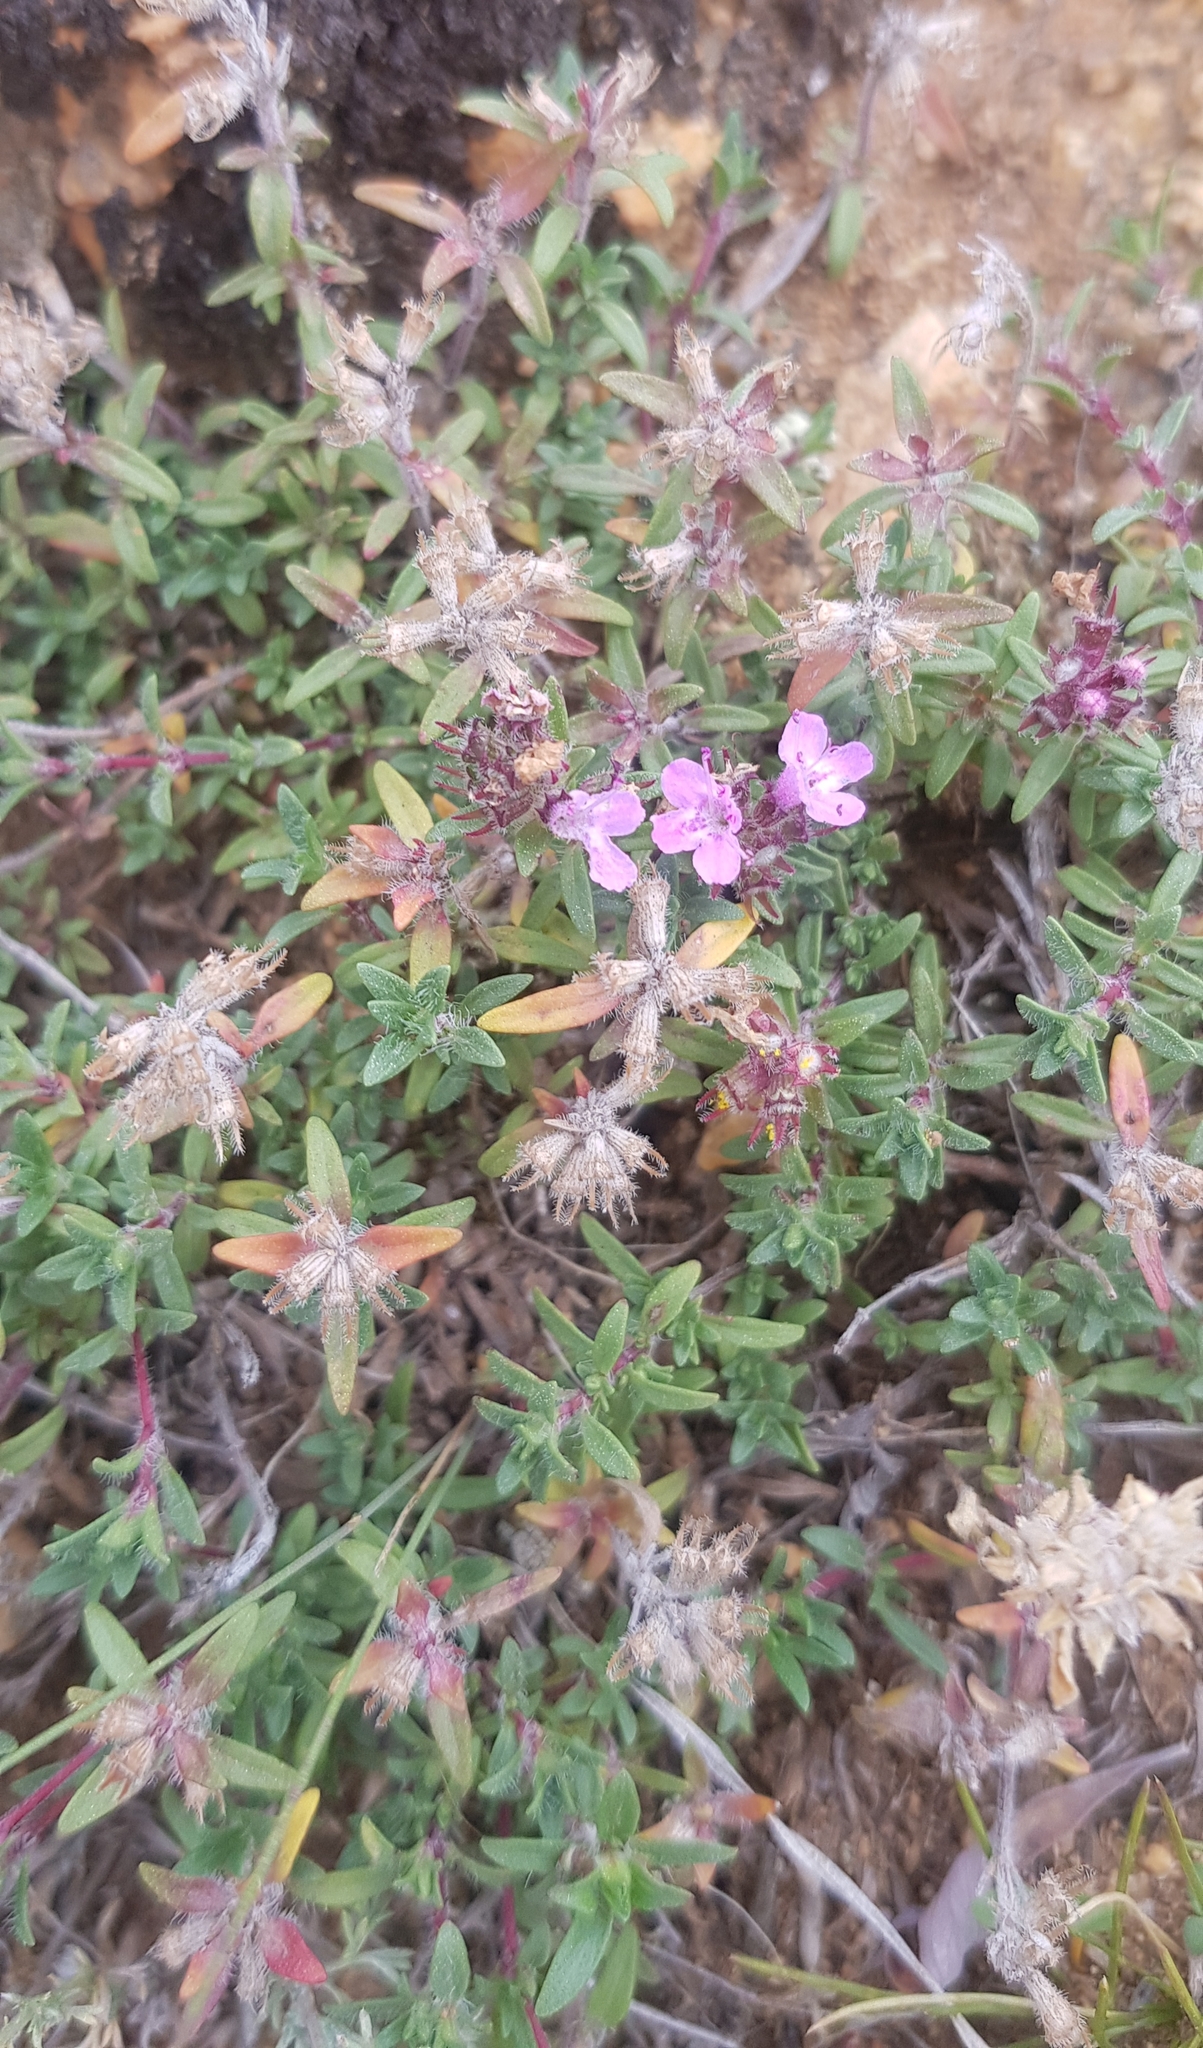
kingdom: Plantae
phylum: Tracheophyta
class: Magnoliopsida
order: Lamiales
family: Lamiaceae
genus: Thymus
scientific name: Thymus gobicus
